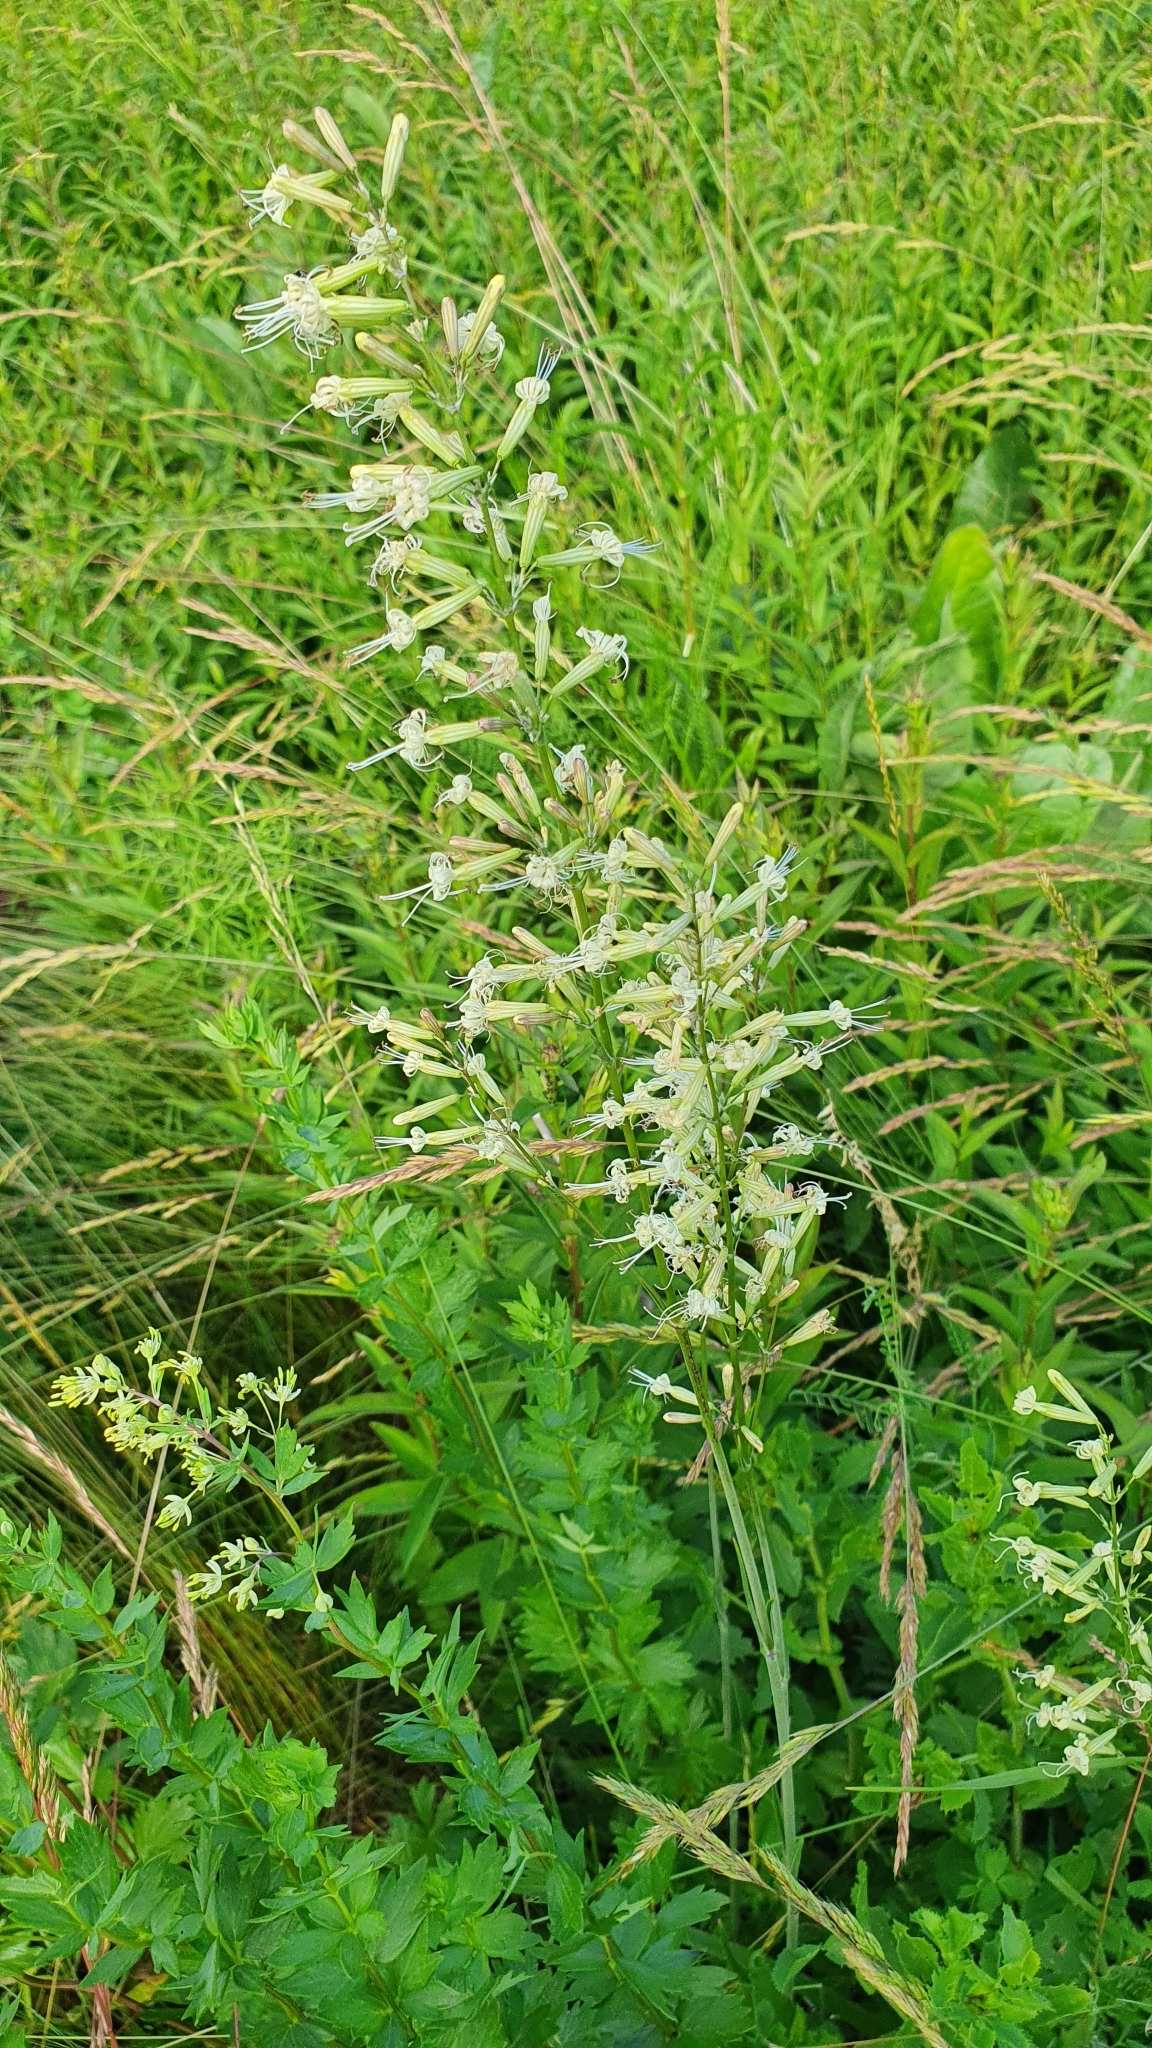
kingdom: Plantae
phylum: Tracheophyta
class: Magnoliopsida
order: Caryophyllales
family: Caryophyllaceae
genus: Silene
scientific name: Silene multiflora
